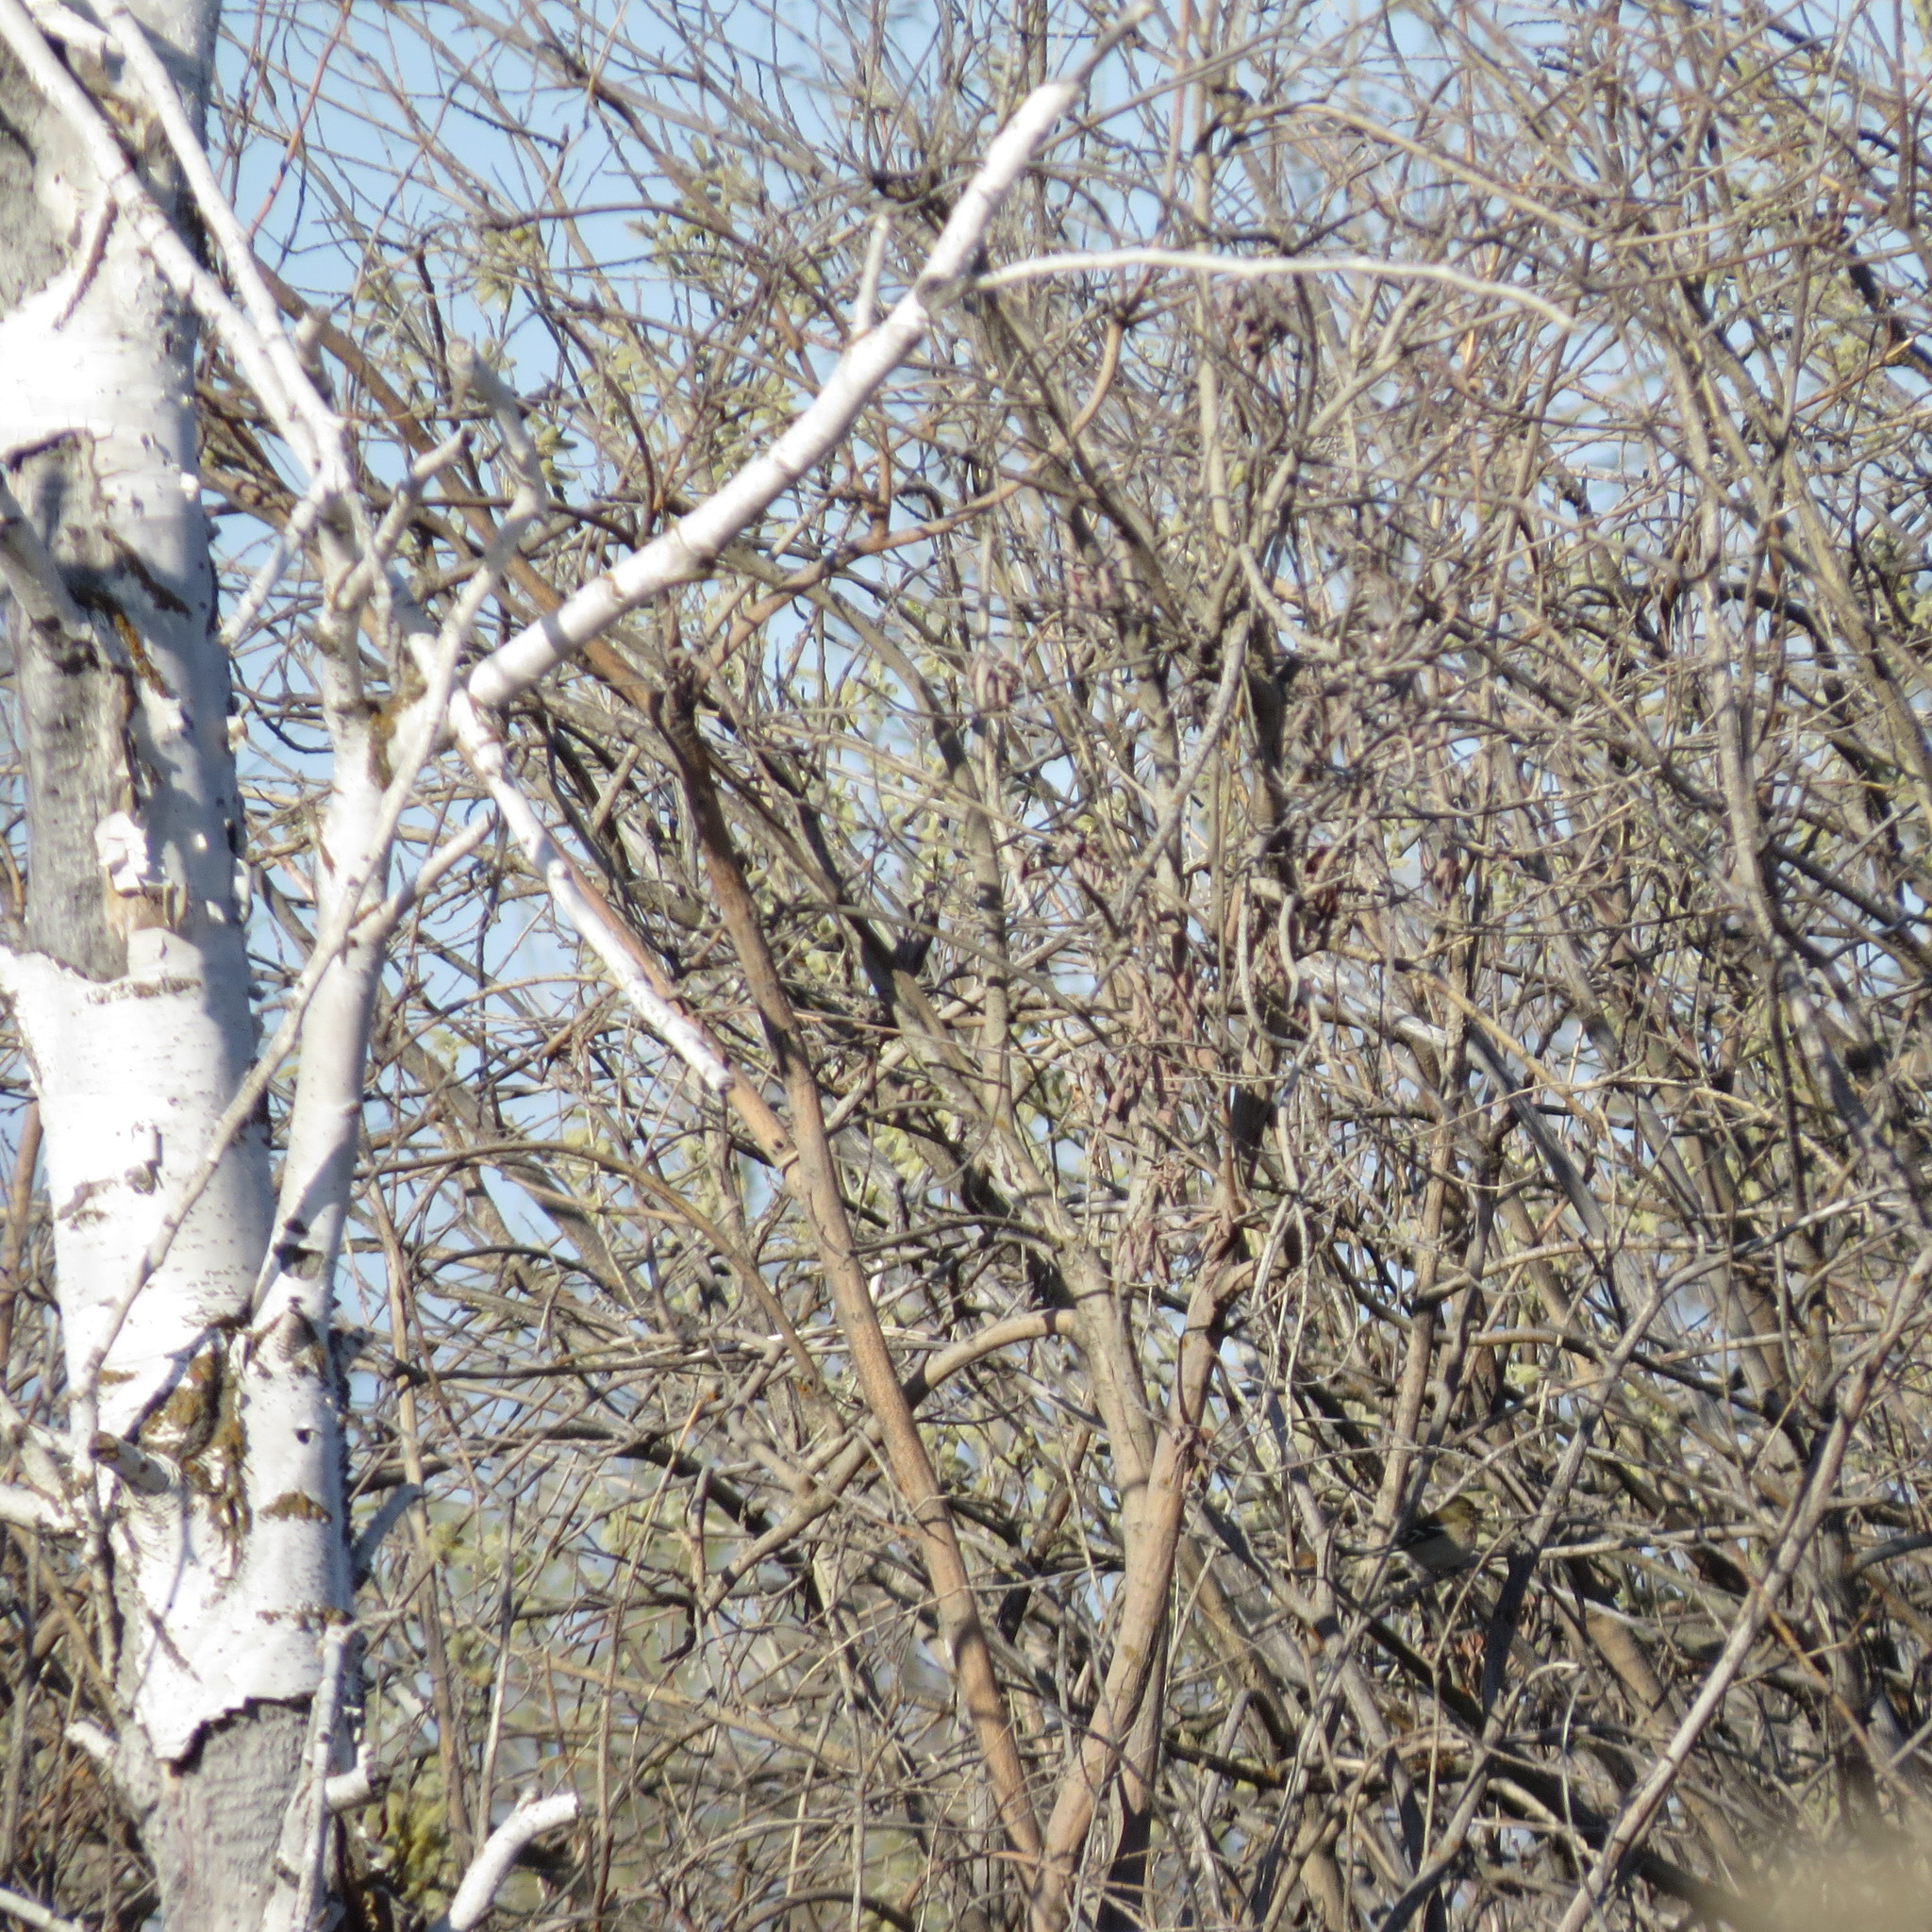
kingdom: Plantae
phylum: Tracheophyta
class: Magnoliopsida
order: Fagales
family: Betulaceae
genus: Betula
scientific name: Betula pendula
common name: Silver birch
